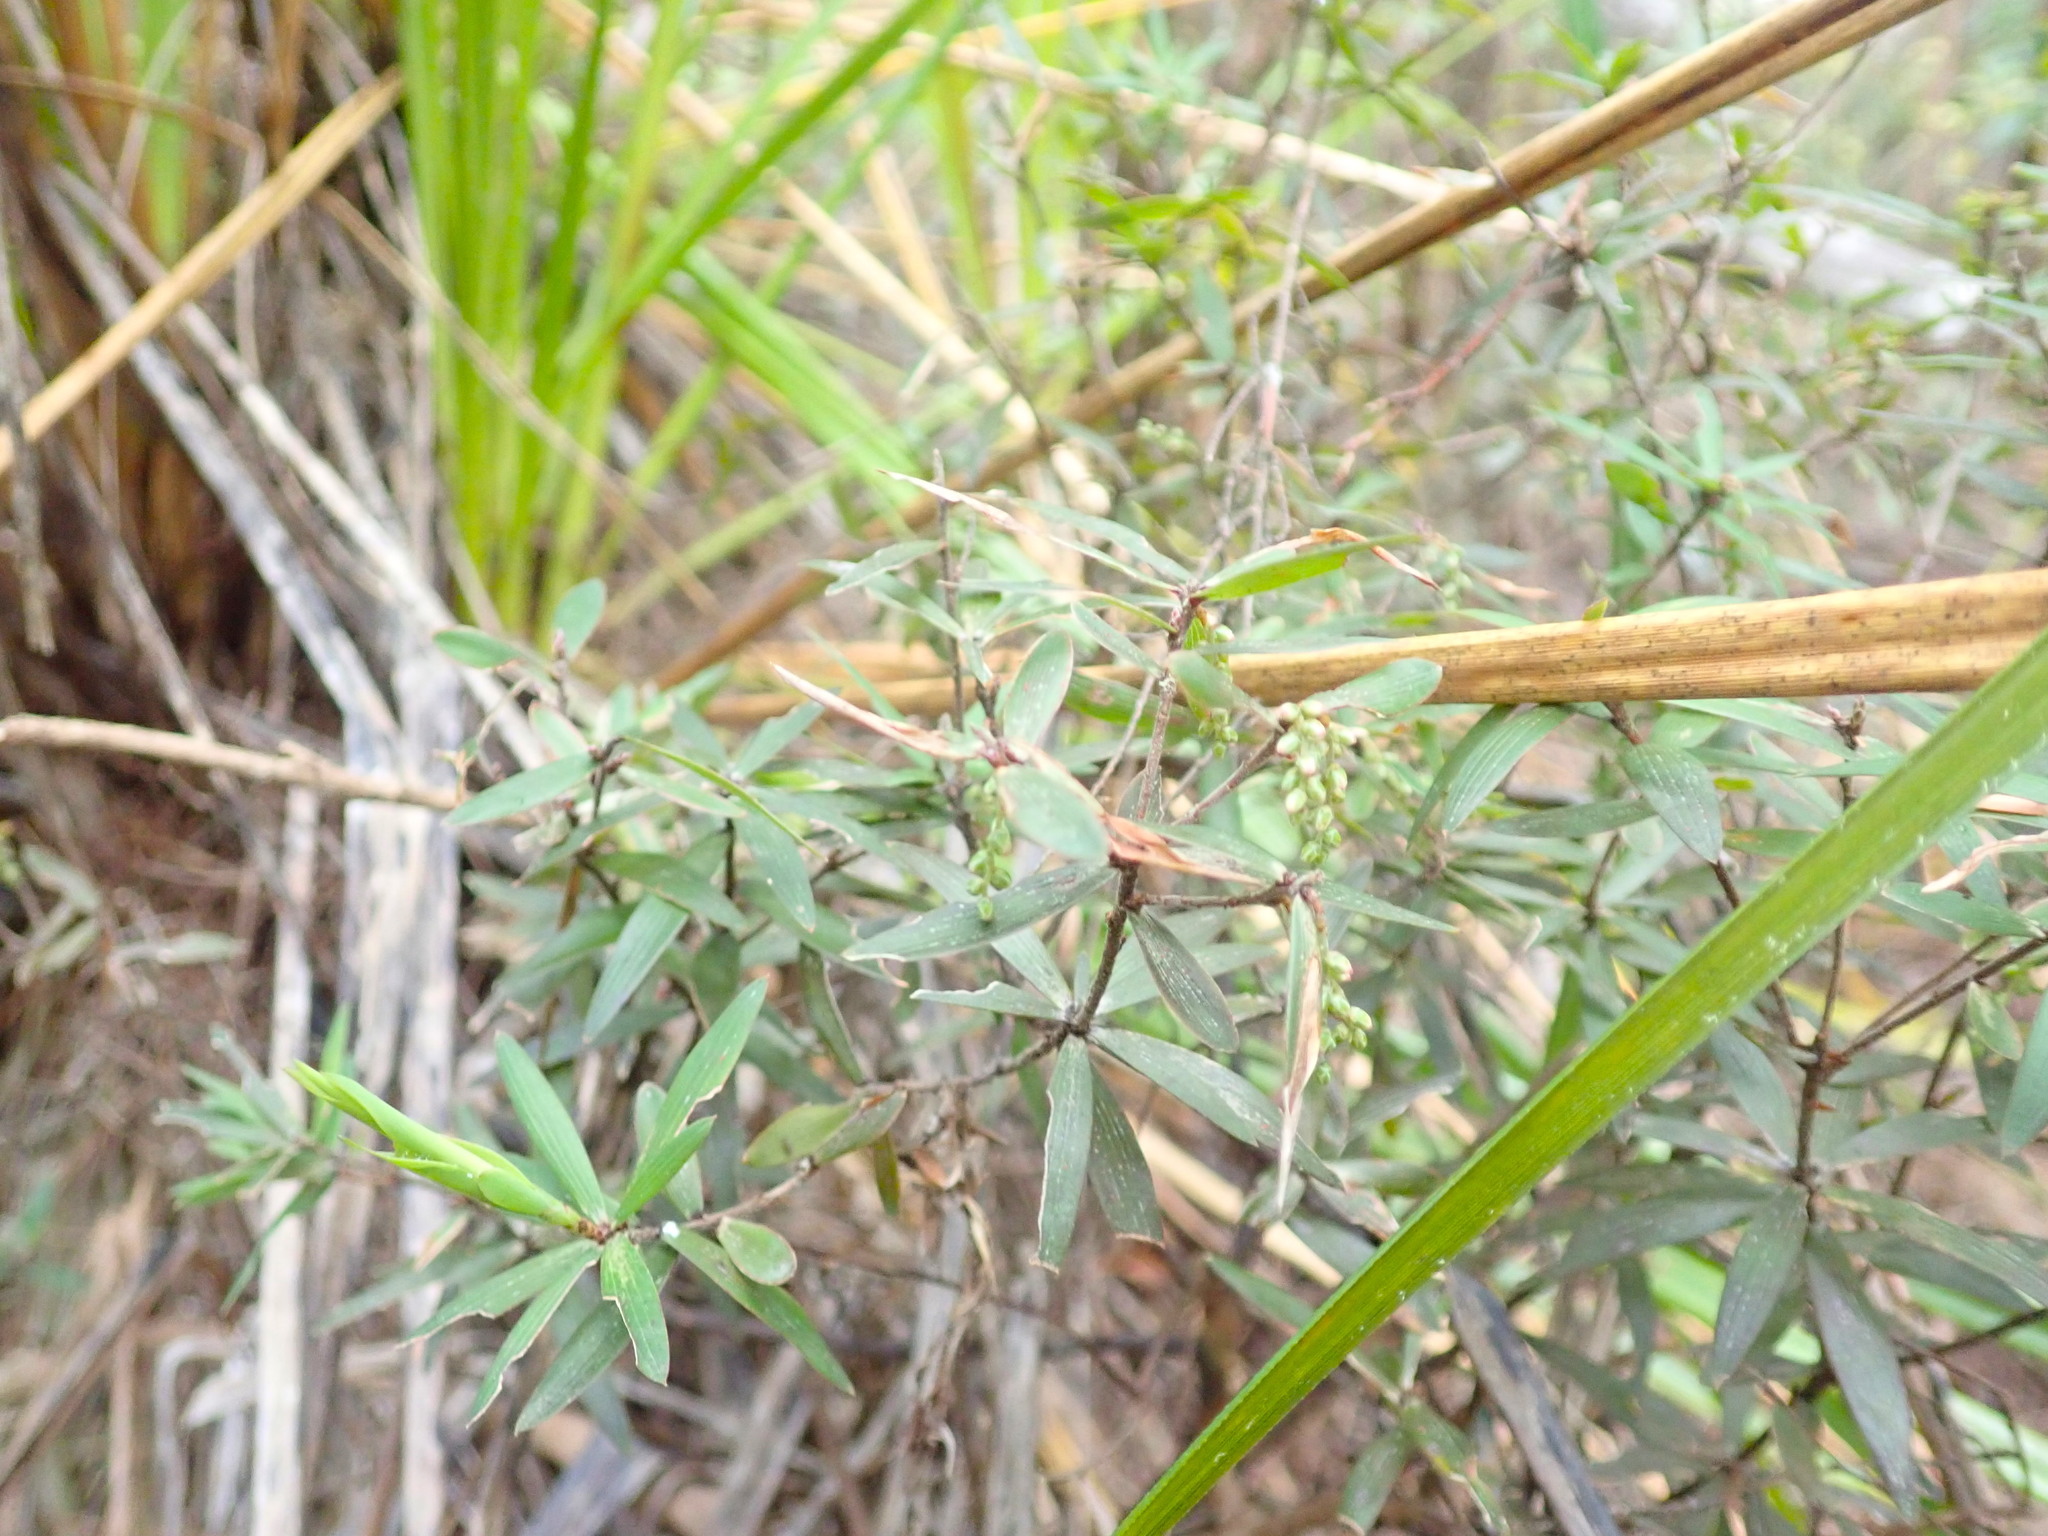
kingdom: Plantae
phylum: Tracheophyta
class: Magnoliopsida
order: Ericales
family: Ericaceae
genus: Leucopogon
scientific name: Leucopogon fasciculatus
